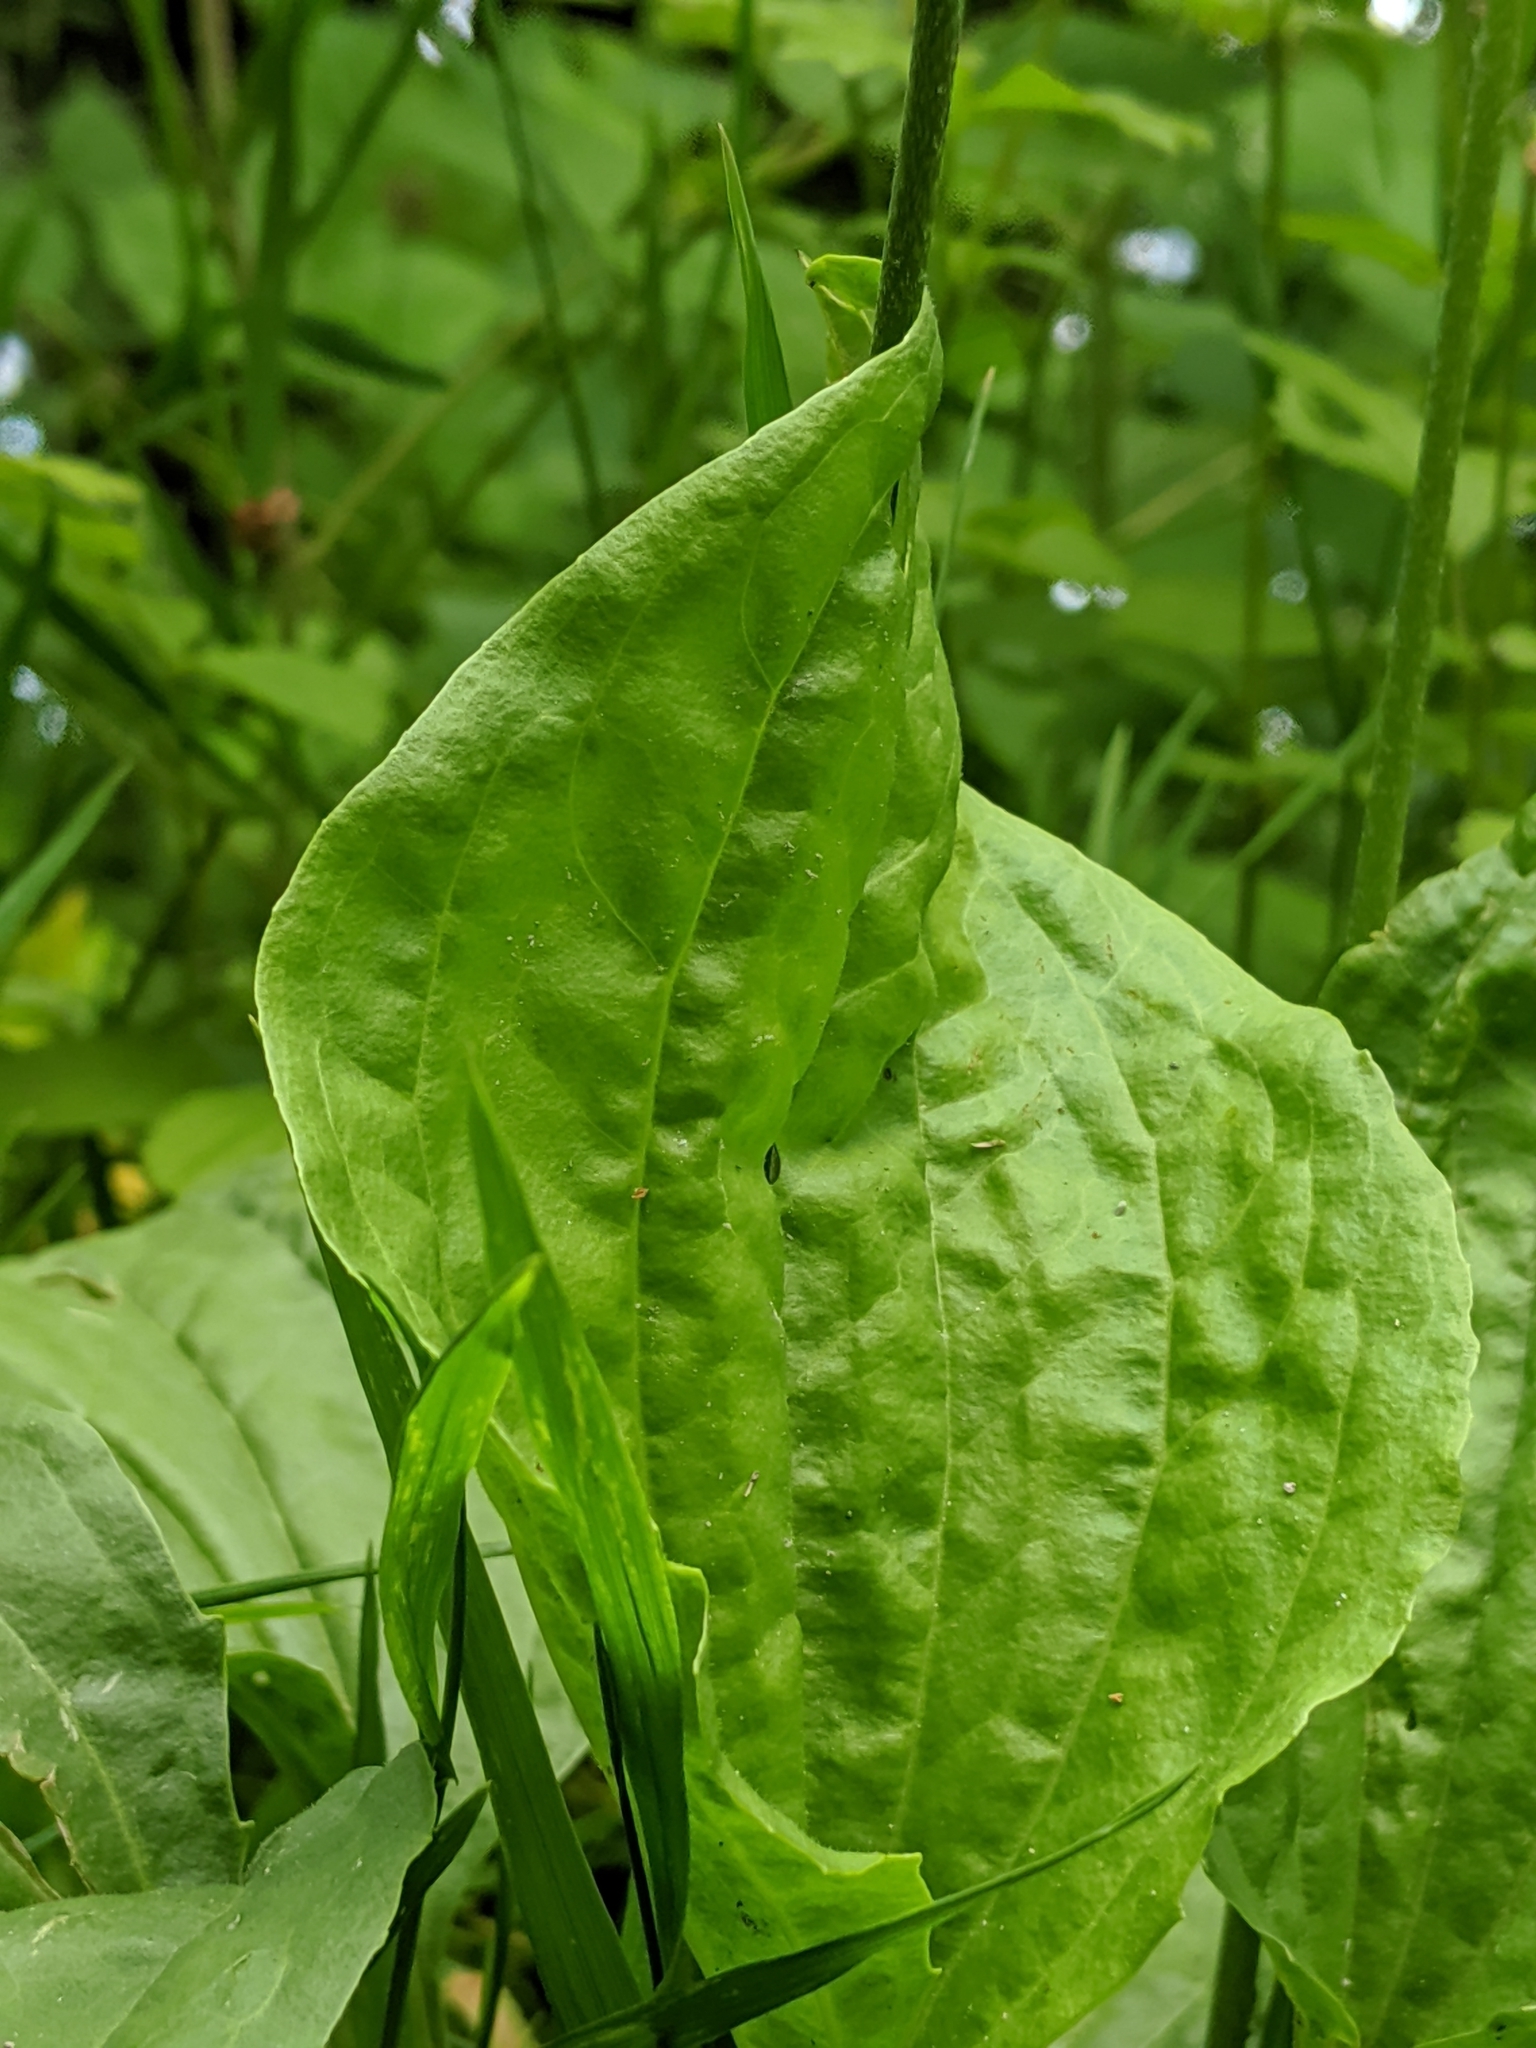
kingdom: Plantae
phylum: Tracheophyta
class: Magnoliopsida
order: Lamiales
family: Plantaginaceae
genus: Plantago
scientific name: Plantago major
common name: Common plantain
